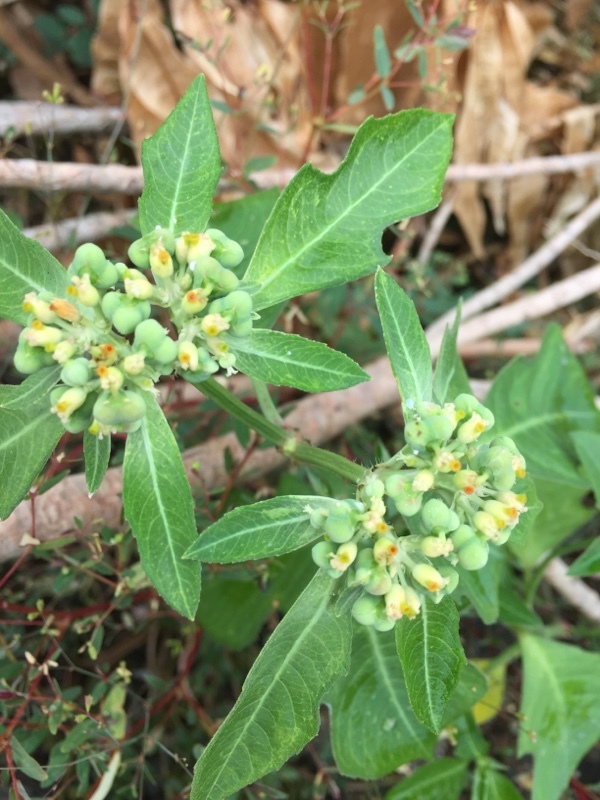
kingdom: Plantae
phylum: Tracheophyta
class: Magnoliopsida
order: Malpighiales
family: Euphorbiaceae
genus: Euphorbia
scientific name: Euphorbia heterophylla
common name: Mexican fireplant
